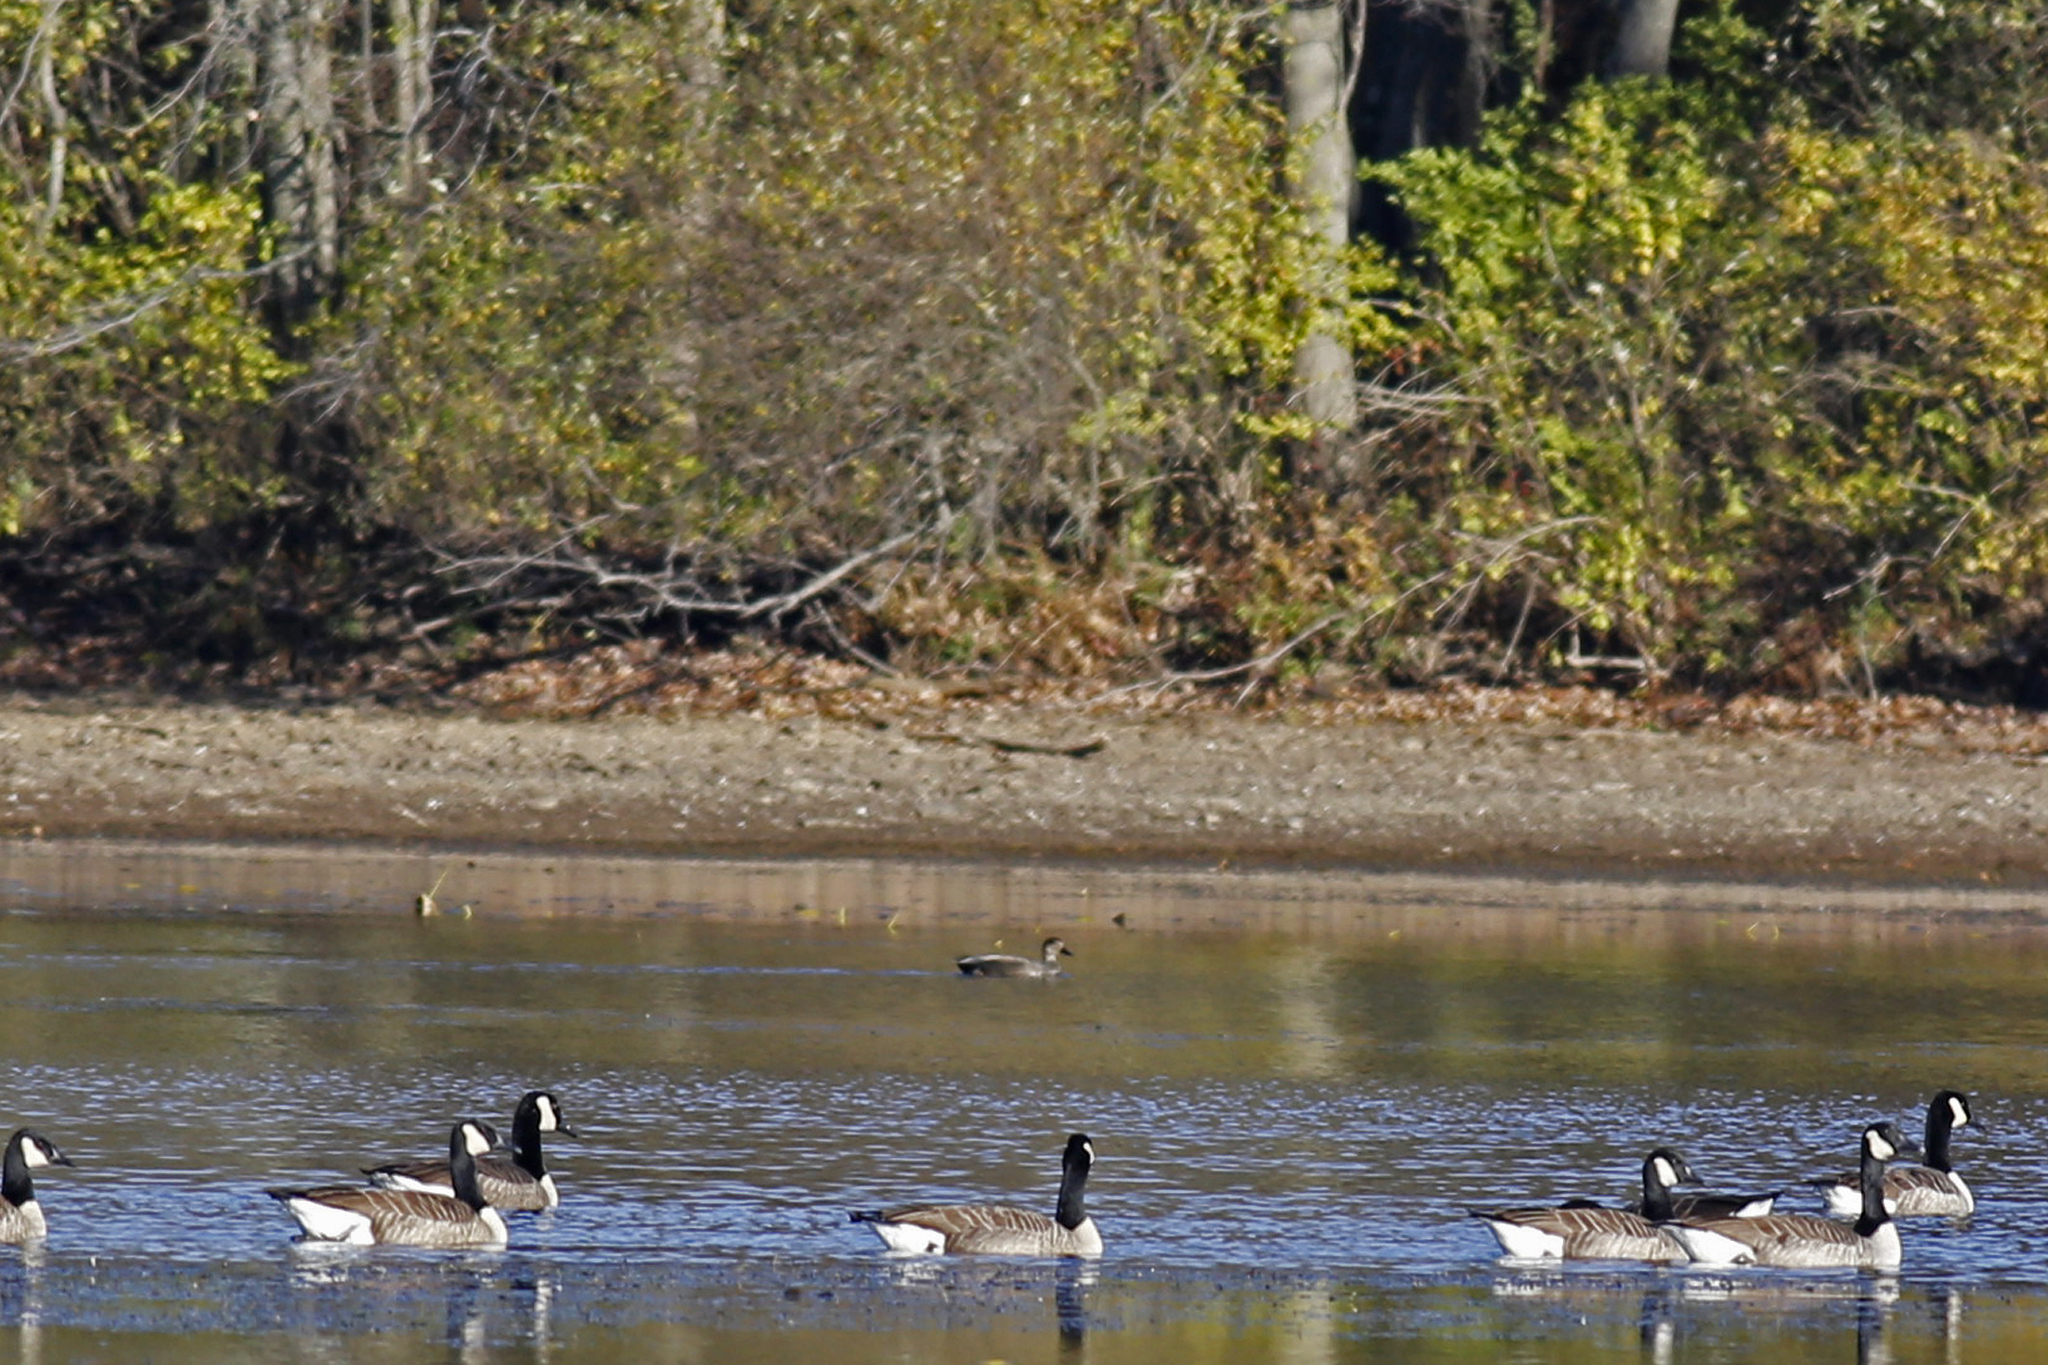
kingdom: Animalia
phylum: Chordata
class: Aves
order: Anseriformes
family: Anatidae
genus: Mareca
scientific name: Mareca strepera
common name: Gadwall
